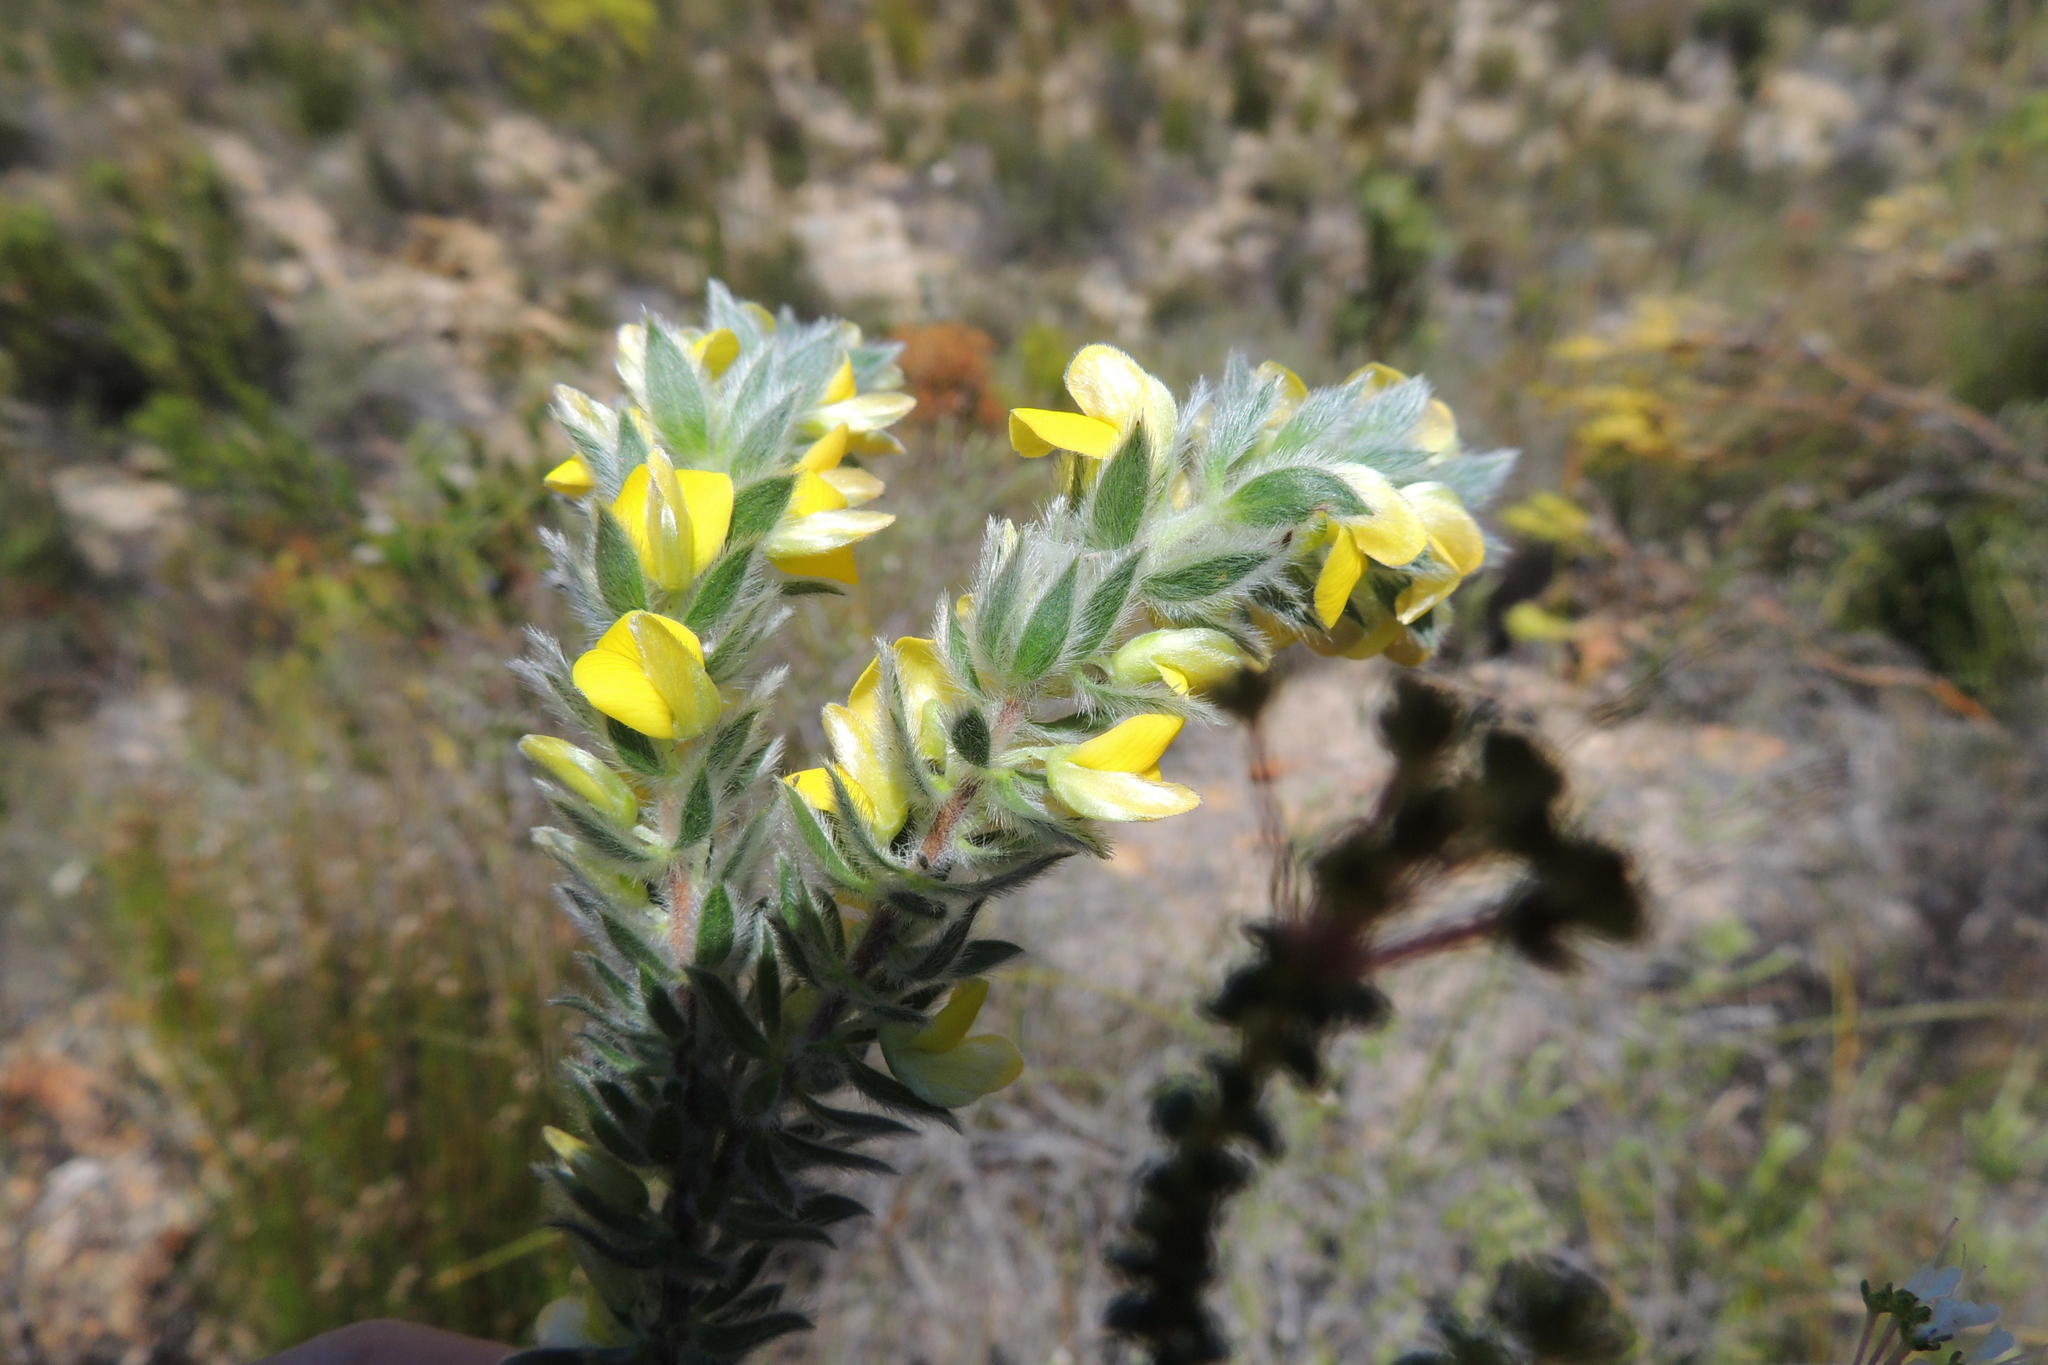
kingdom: Plantae
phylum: Tracheophyta
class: Magnoliopsida
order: Fabales
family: Fabaceae
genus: Aspalathus
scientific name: Aspalathus vulpina
